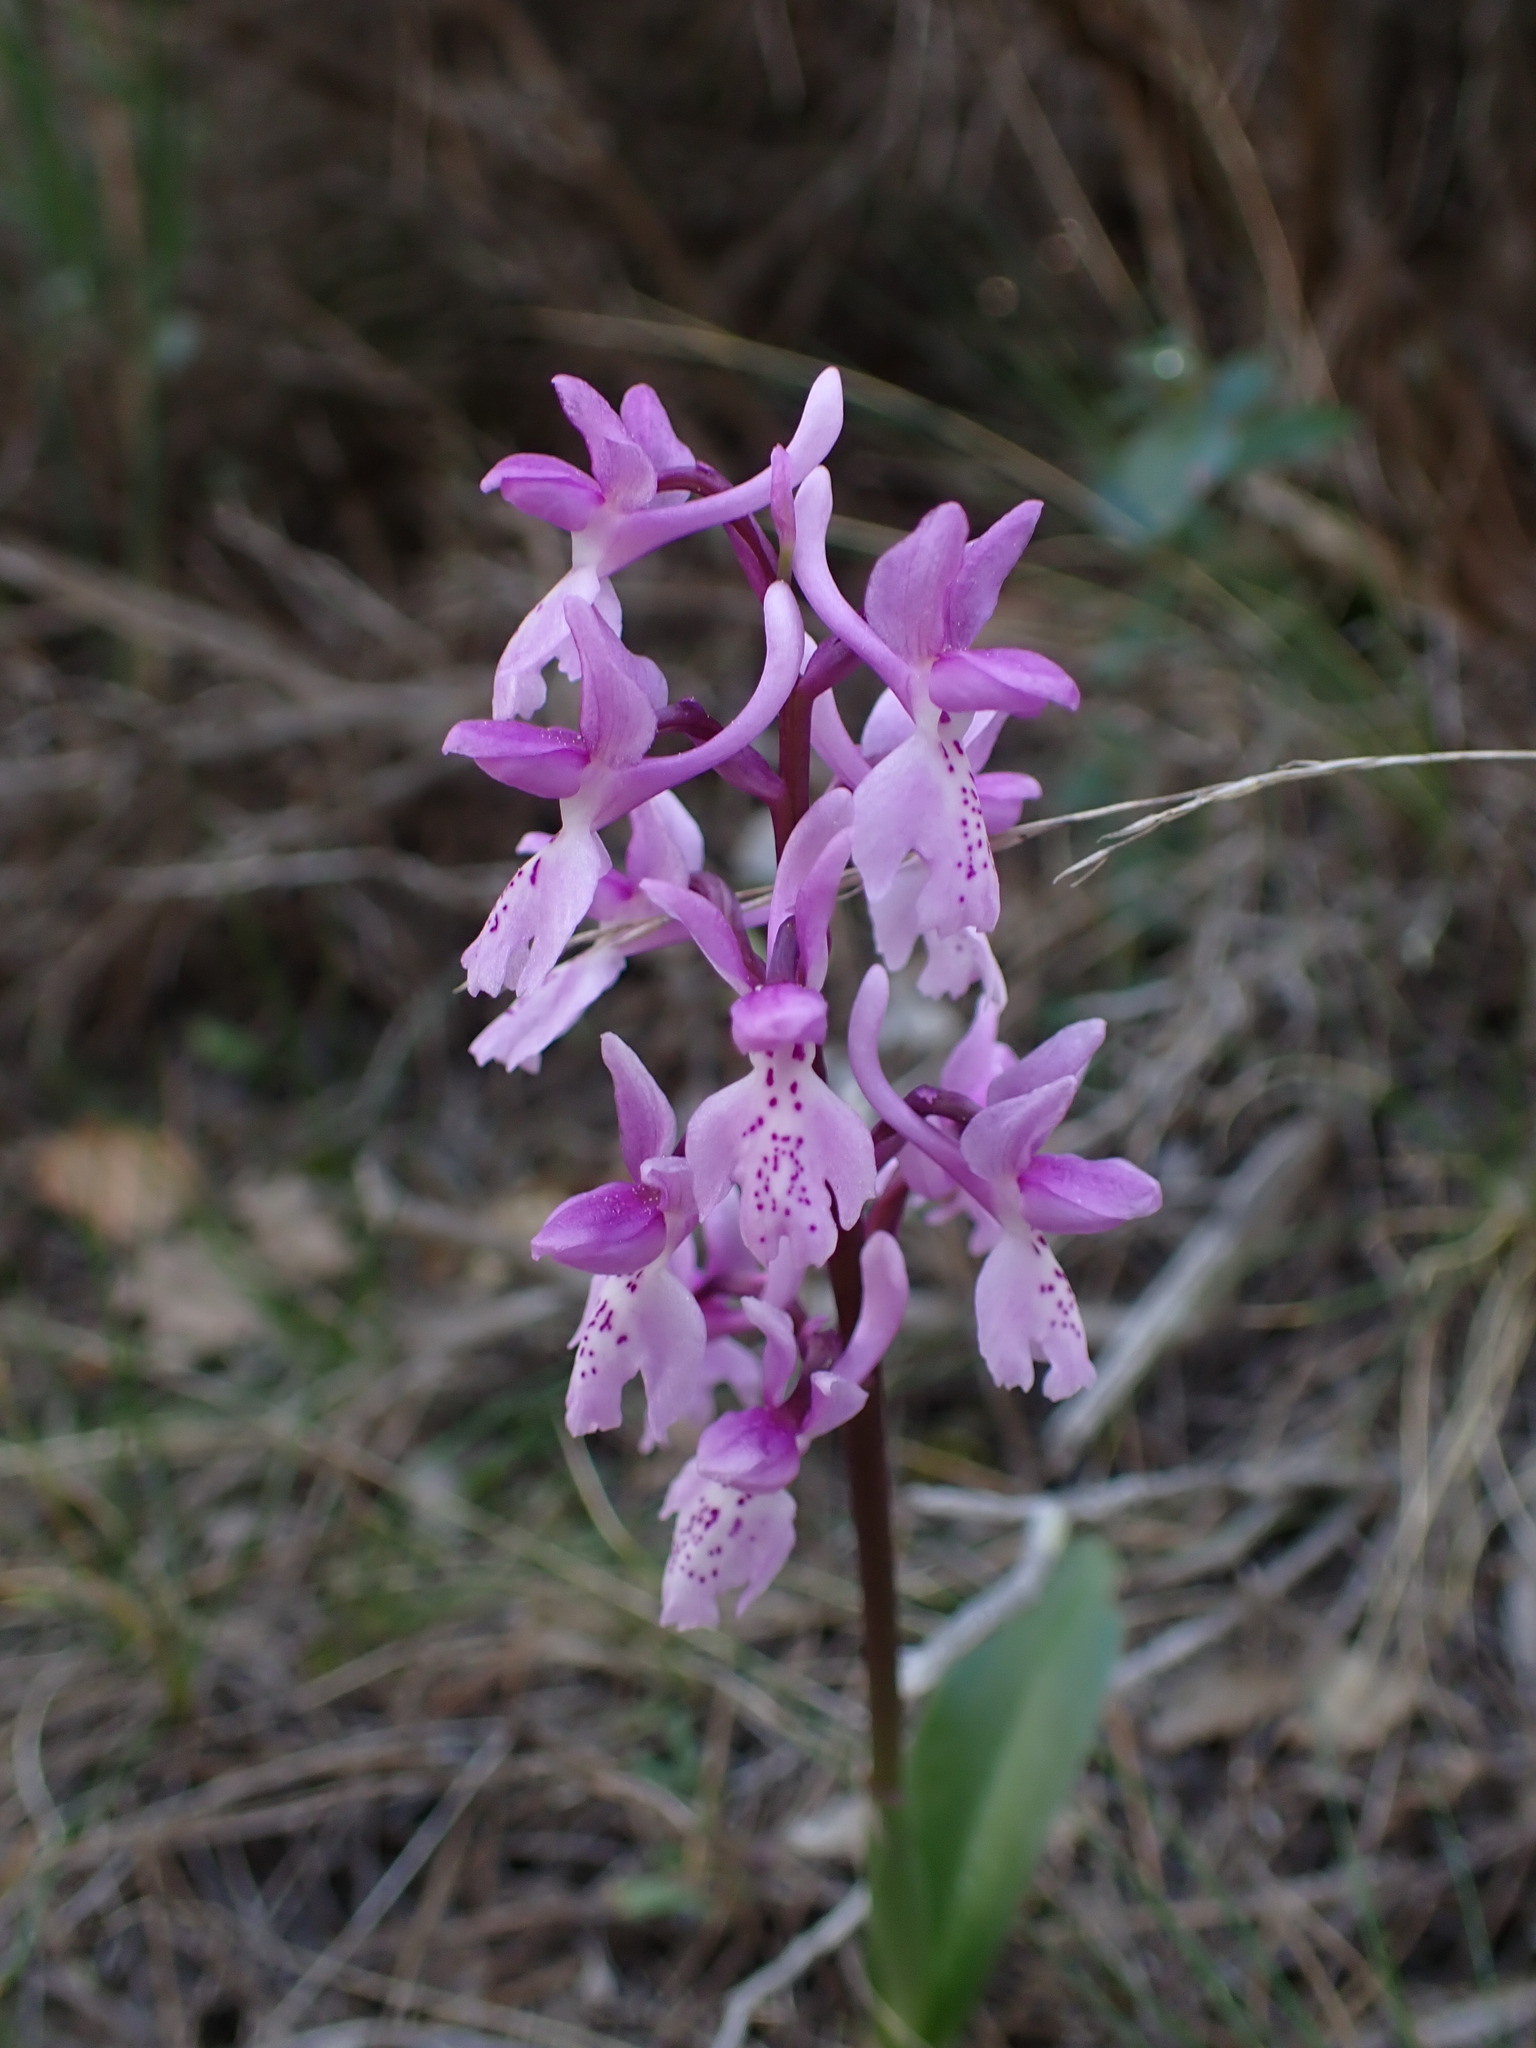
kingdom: Plantae
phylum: Tracheophyta
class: Liliopsida
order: Asparagales
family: Orchidaceae
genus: Orchis
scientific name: Orchis olbiensis
